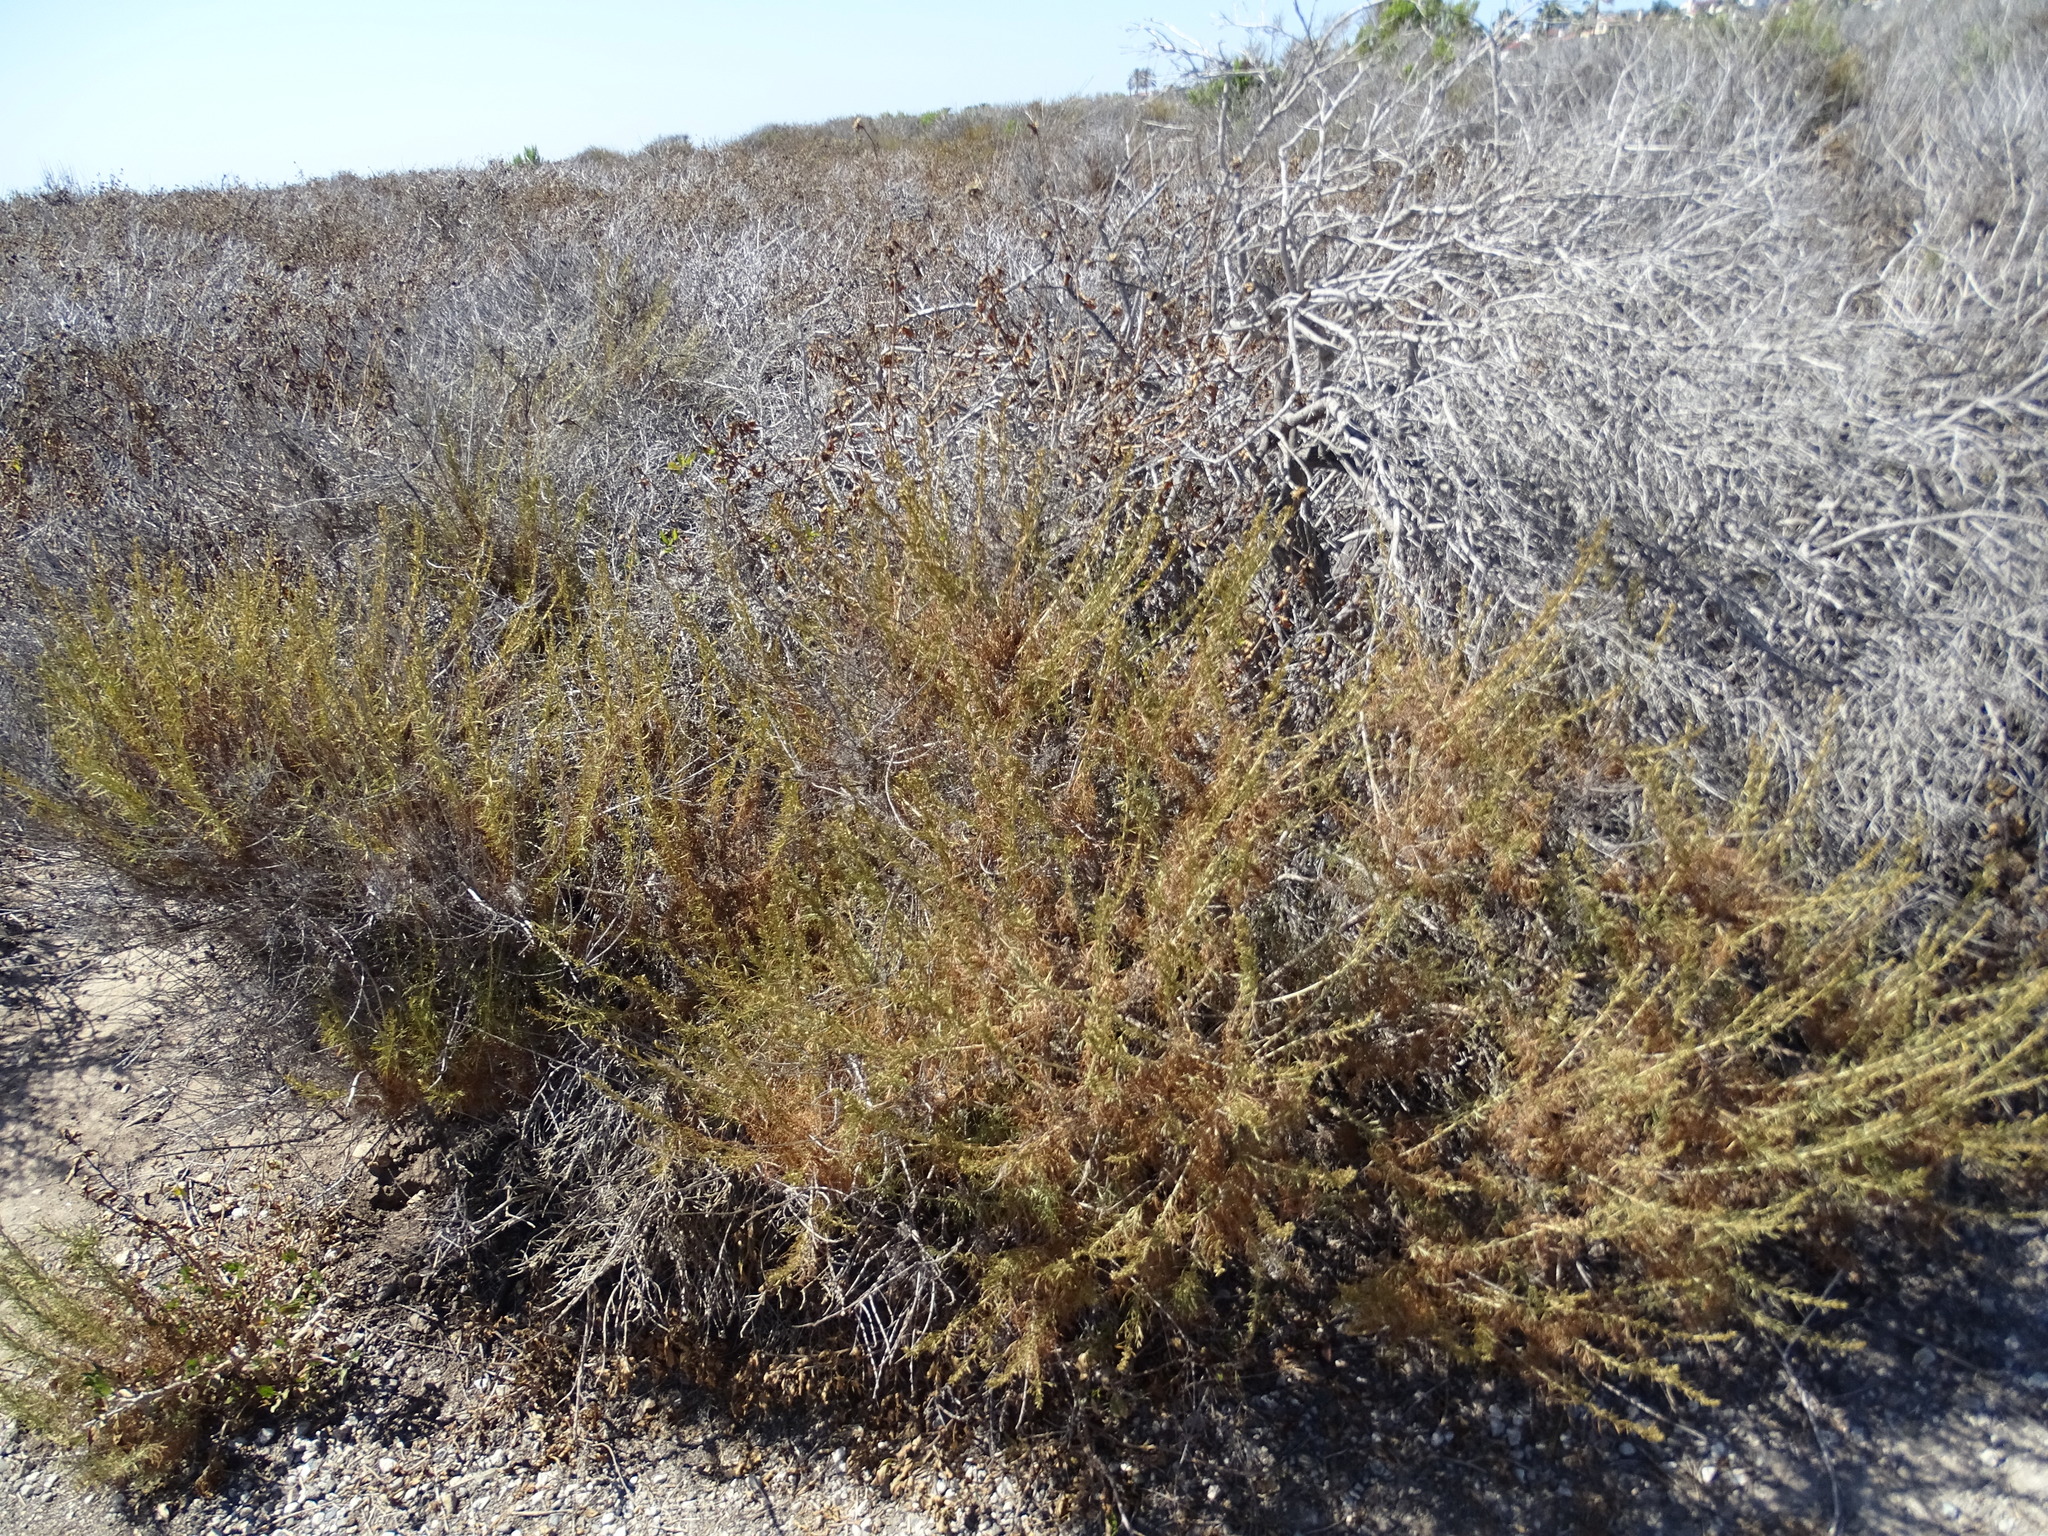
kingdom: Plantae
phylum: Tracheophyta
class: Magnoliopsida
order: Asterales
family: Asteraceae
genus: Artemisia
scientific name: Artemisia californica
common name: California sagebrush
